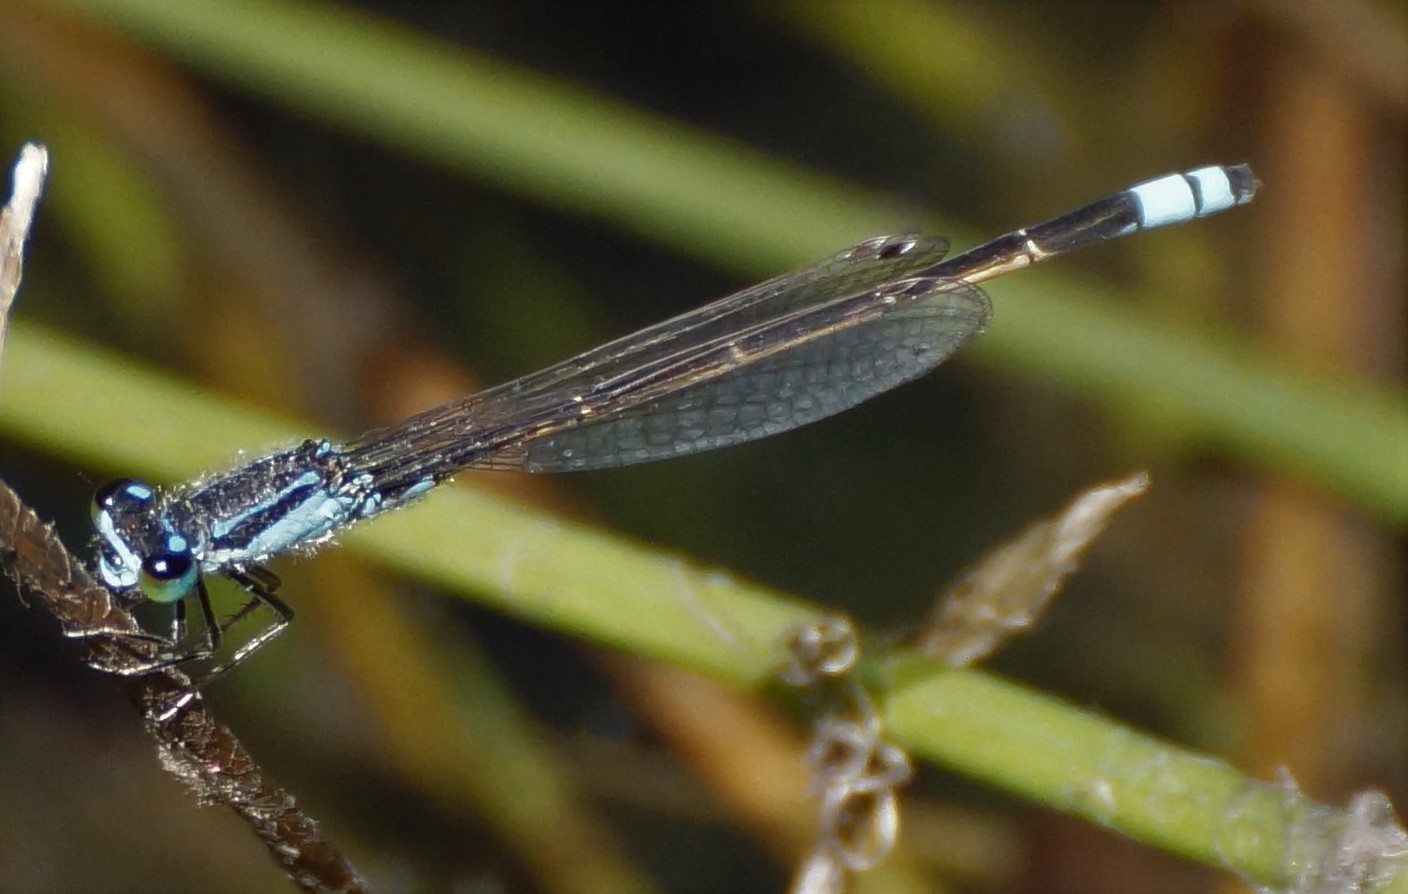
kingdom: Animalia
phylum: Arthropoda
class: Insecta
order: Odonata
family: Coenagrionidae
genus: Ischnura
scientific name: Ischnura heterosticta
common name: Common bluetail
